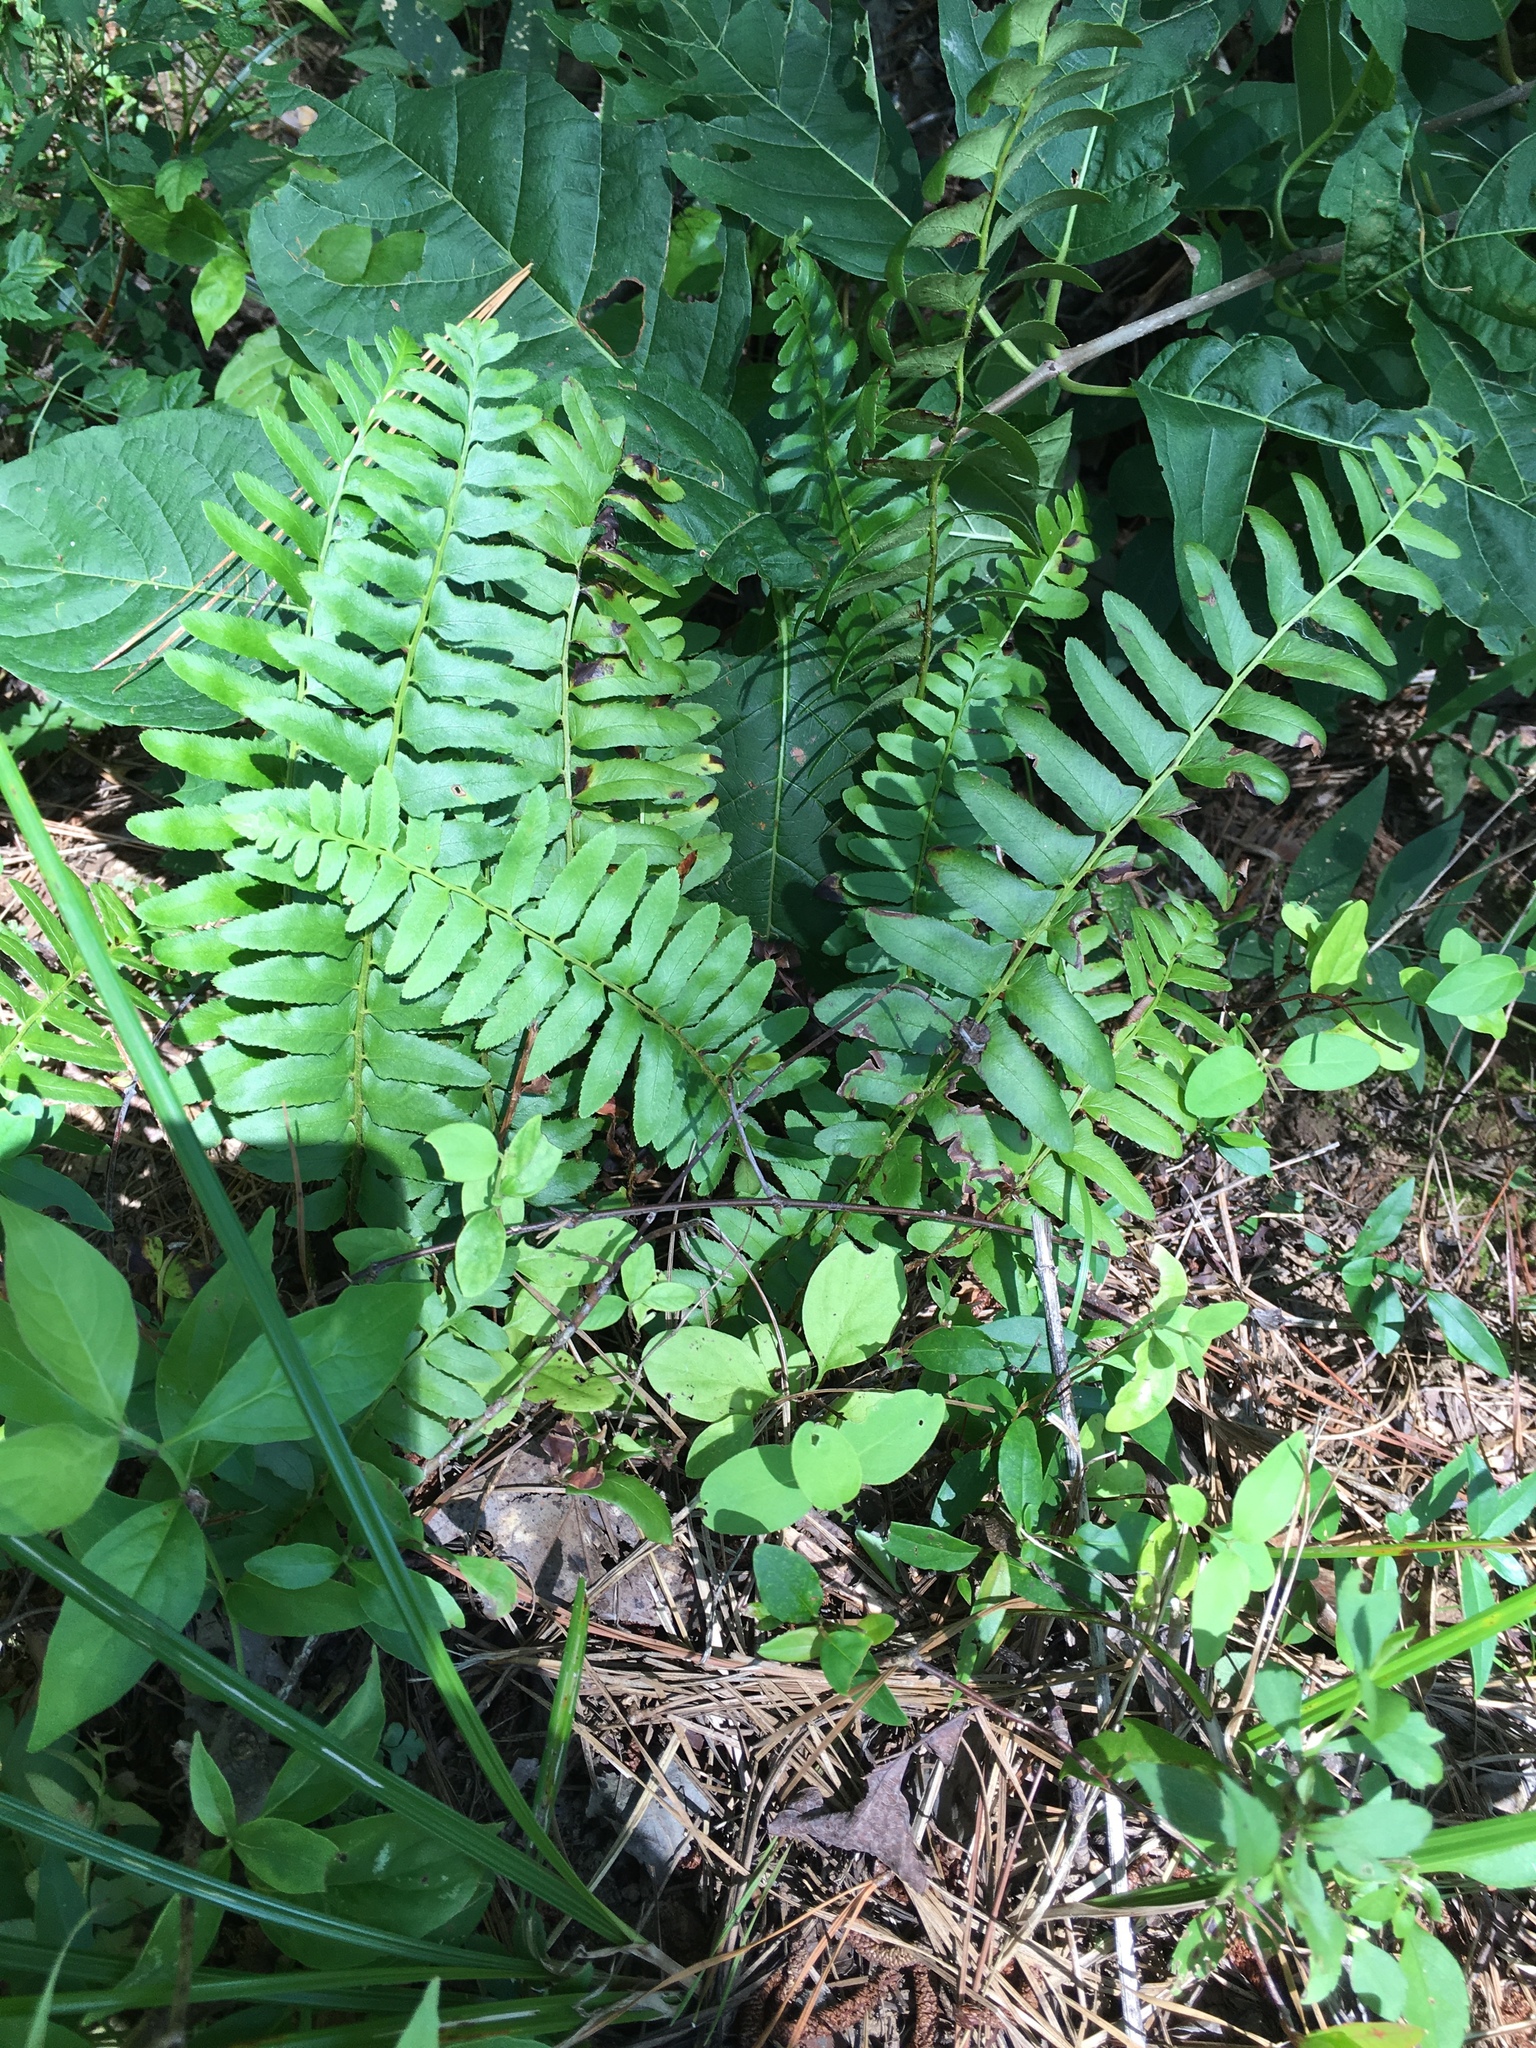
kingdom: Plantae
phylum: Tracheophyta
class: Polypodiopsida
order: Polypodiales
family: Dryopteridaceae
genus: Polystichum
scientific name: Polystichum acrostichoides
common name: Christmas fern
